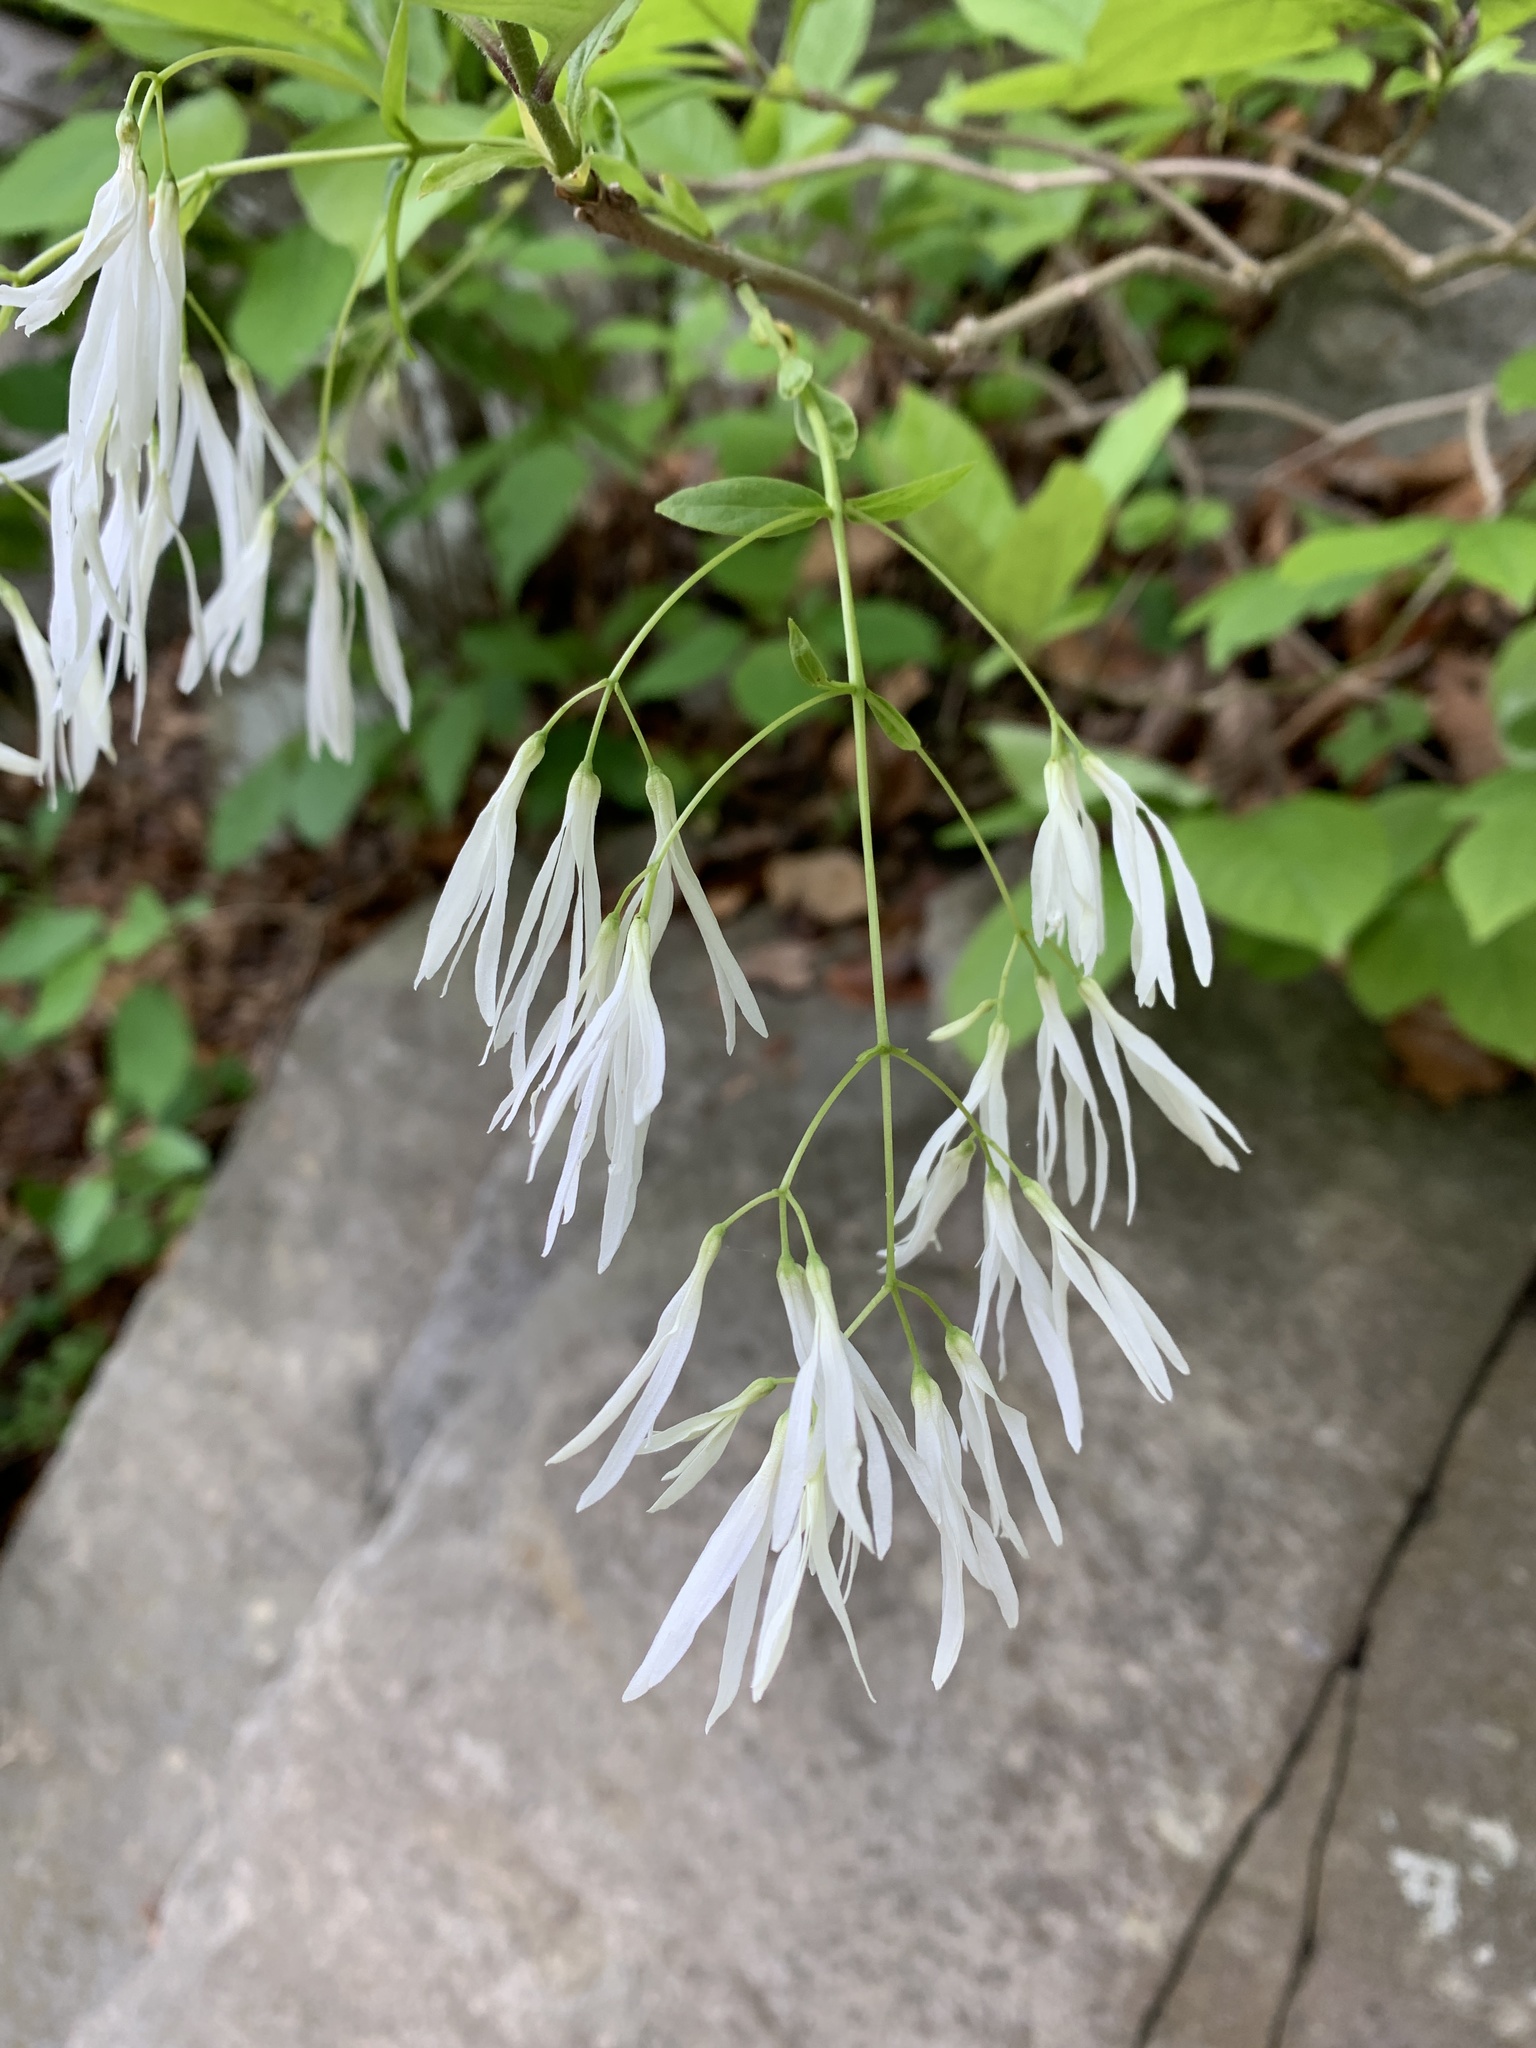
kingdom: Plantae
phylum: Tracheophyta
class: Magnoliopsida
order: Lamiales
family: Oleaceae
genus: Chionanthus
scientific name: Chionanthus virginicus
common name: American fringetree
